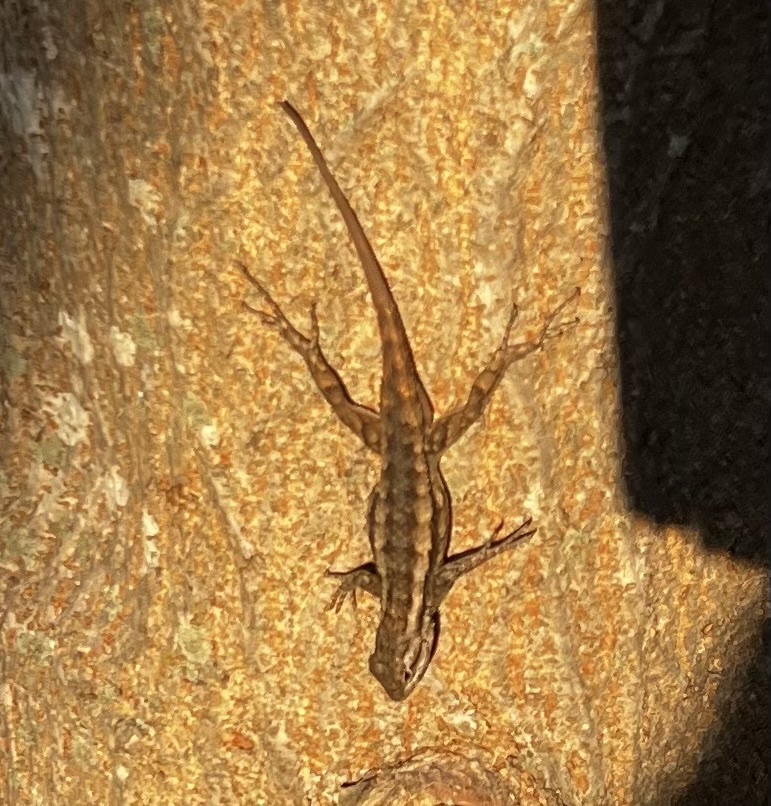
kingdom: Animalia
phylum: Chordata
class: Squamata
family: Phrynosomatidae
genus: Sceloporus
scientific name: Sceloporus olivaceus
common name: Texas spiny lizard
